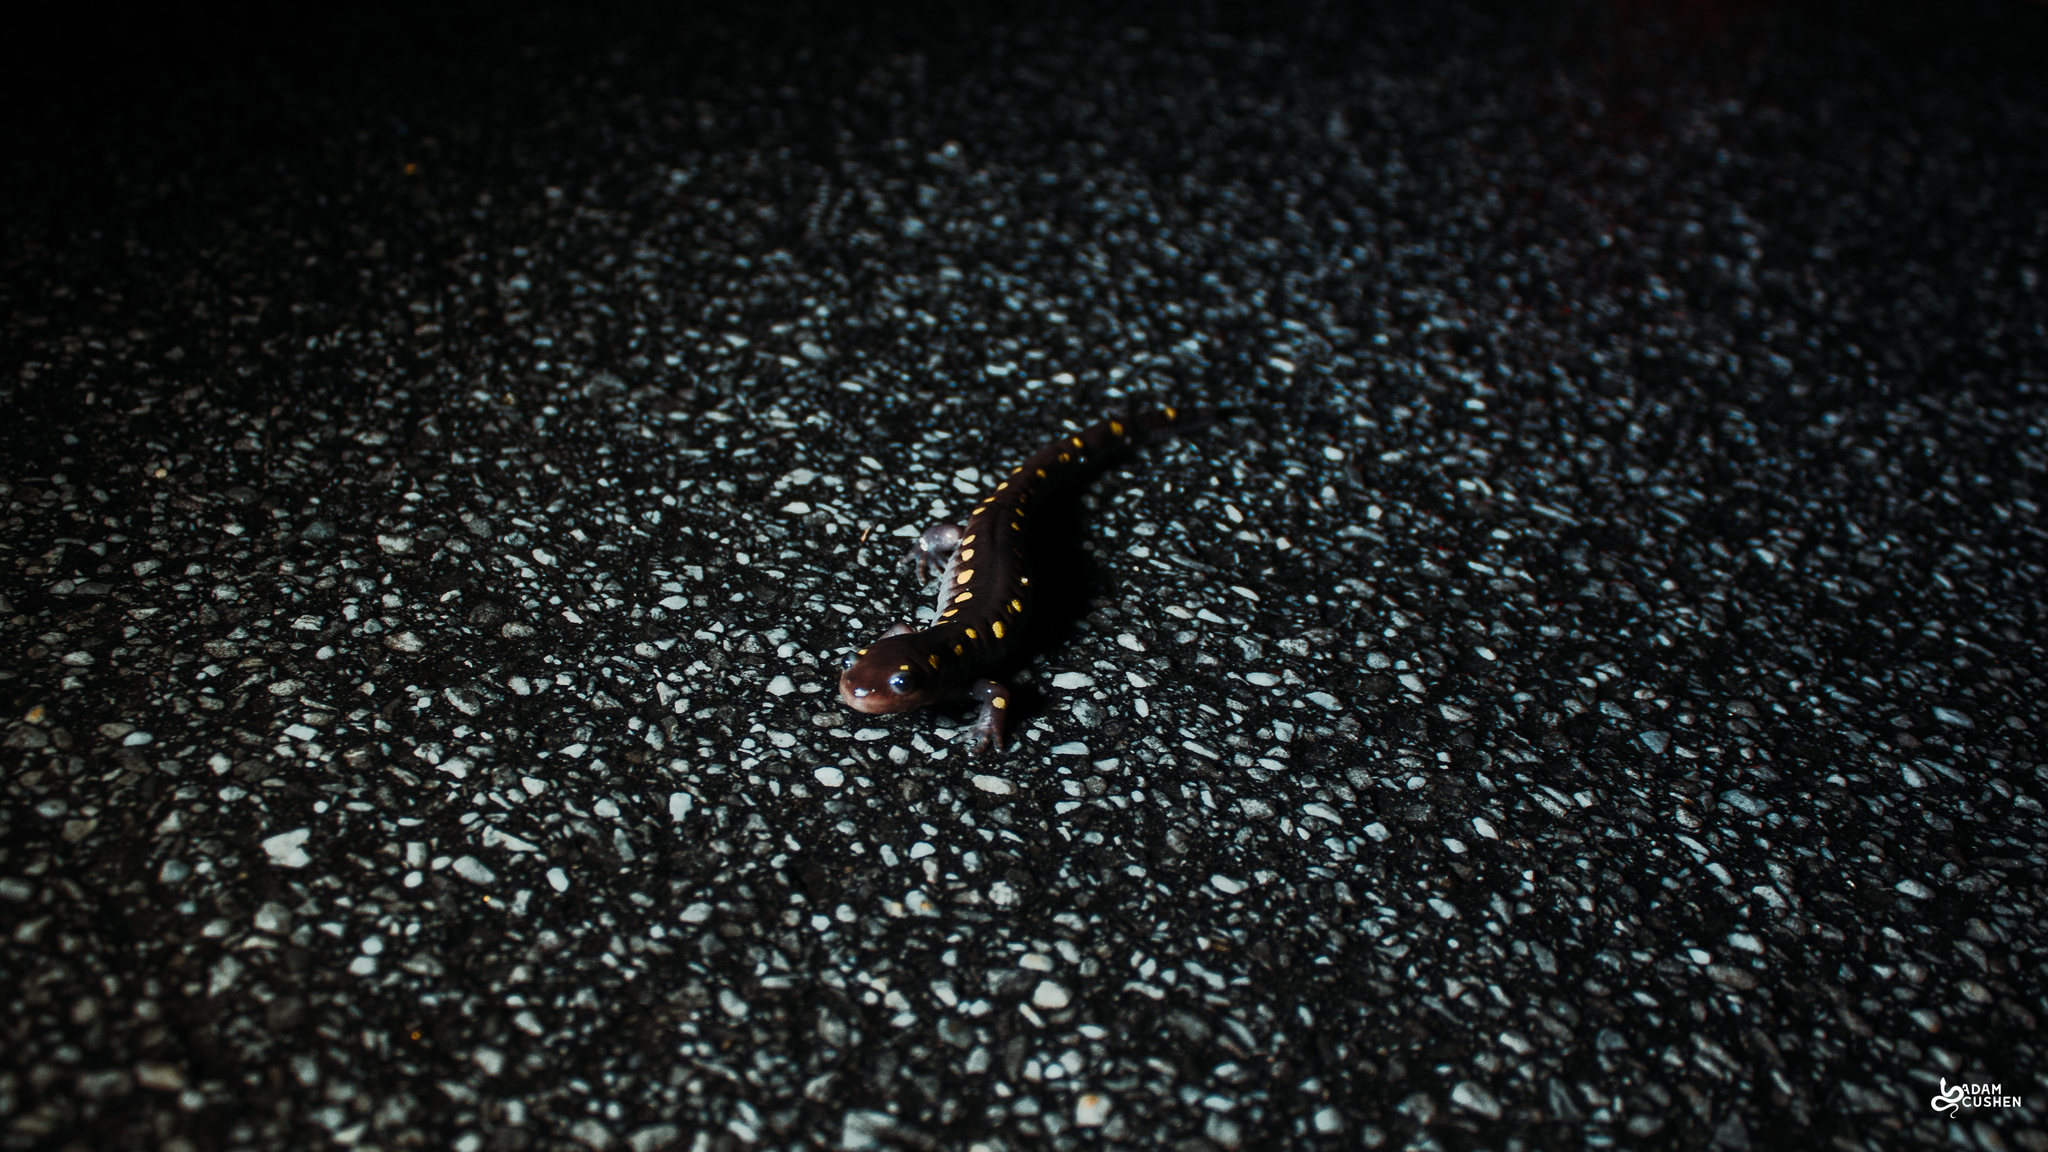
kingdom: Animalia
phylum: Chordata
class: Amphibia
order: Caudata
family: Ambystomatidae
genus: Ambystoma
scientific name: Ambystoma maculatum
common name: Spotted salamander
